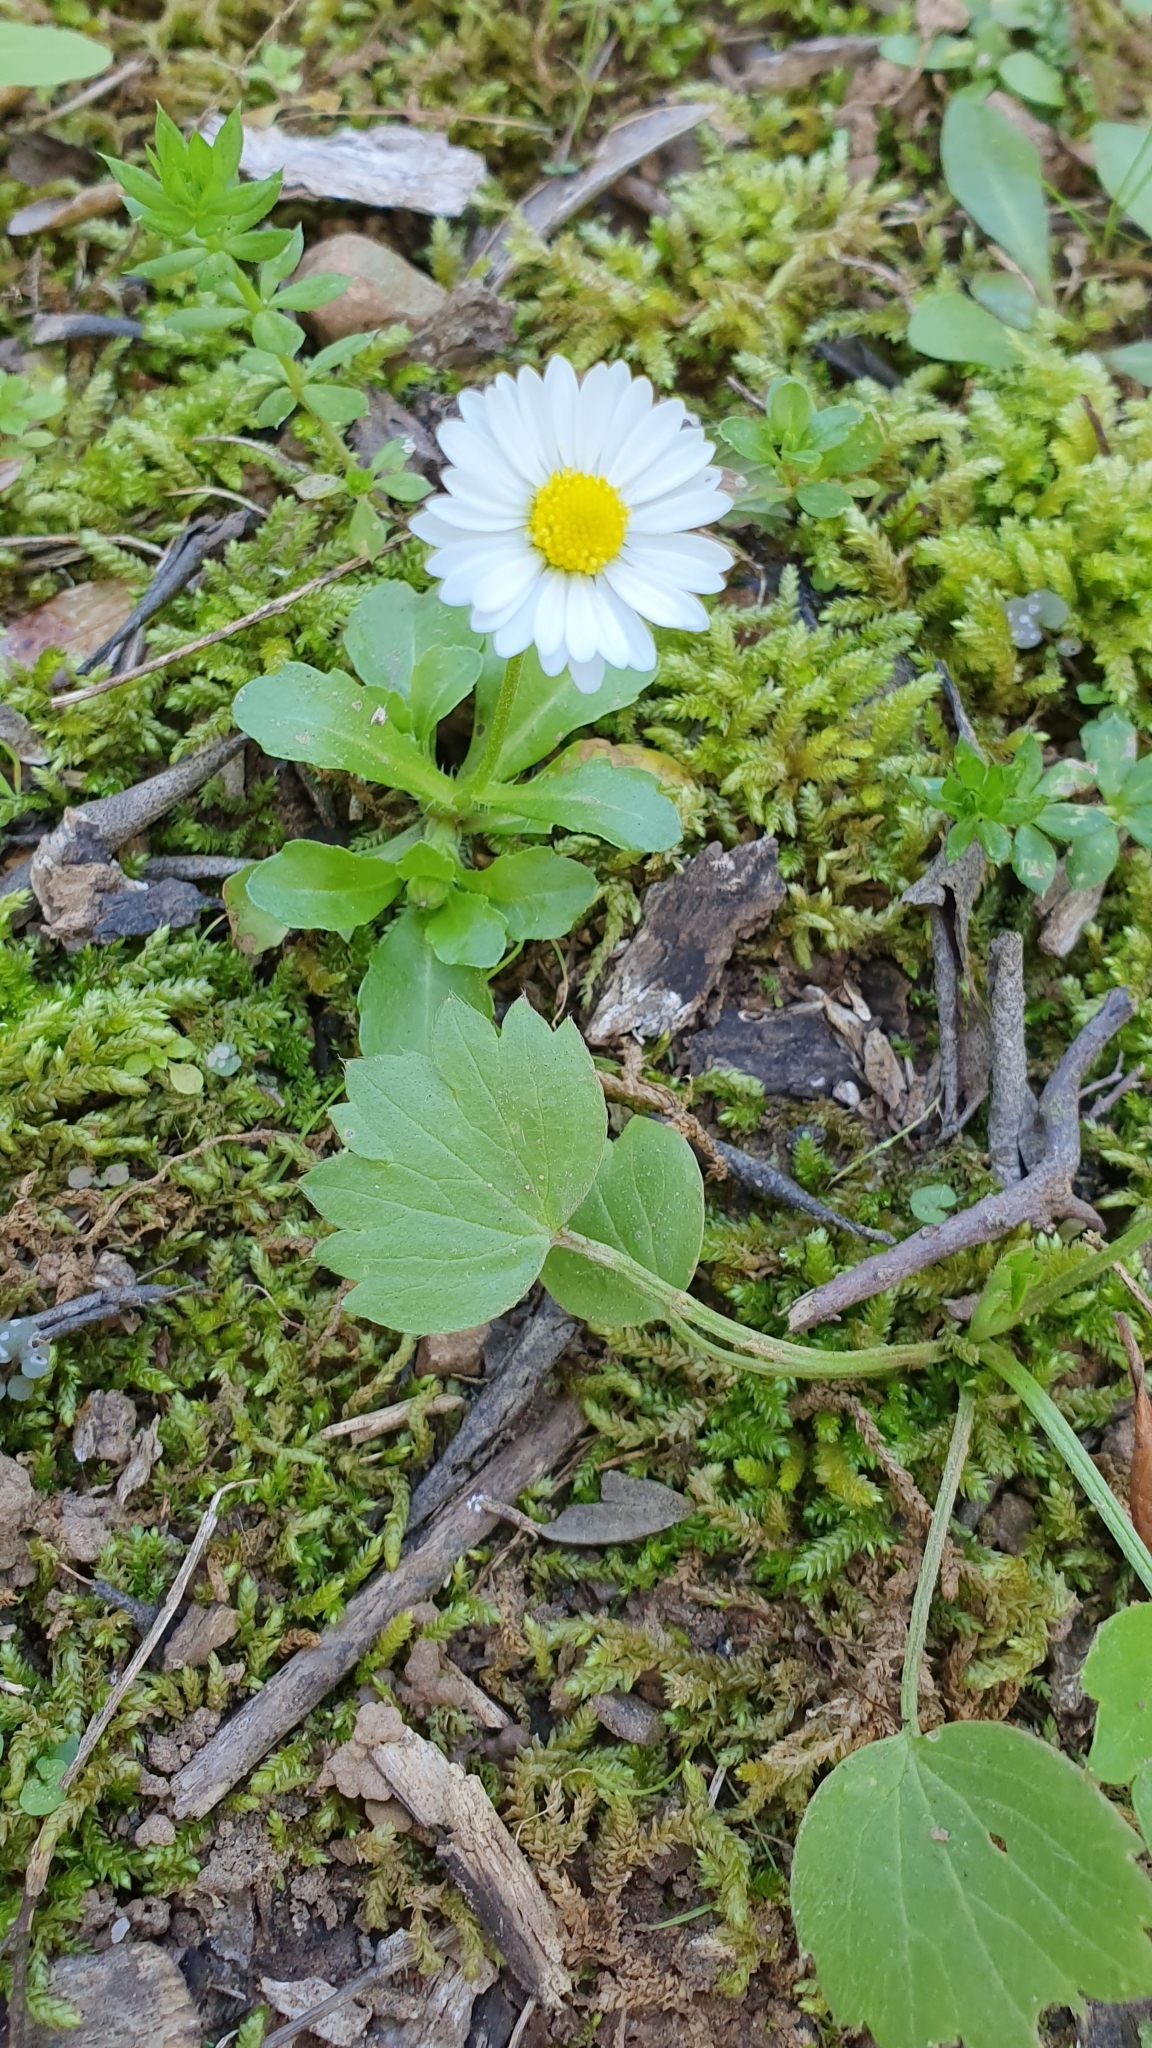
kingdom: Plantae
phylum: Tracheophyta
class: Magnoliopsida
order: Asterales
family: Asteraceae
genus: Bellis
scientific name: Bellis annua
